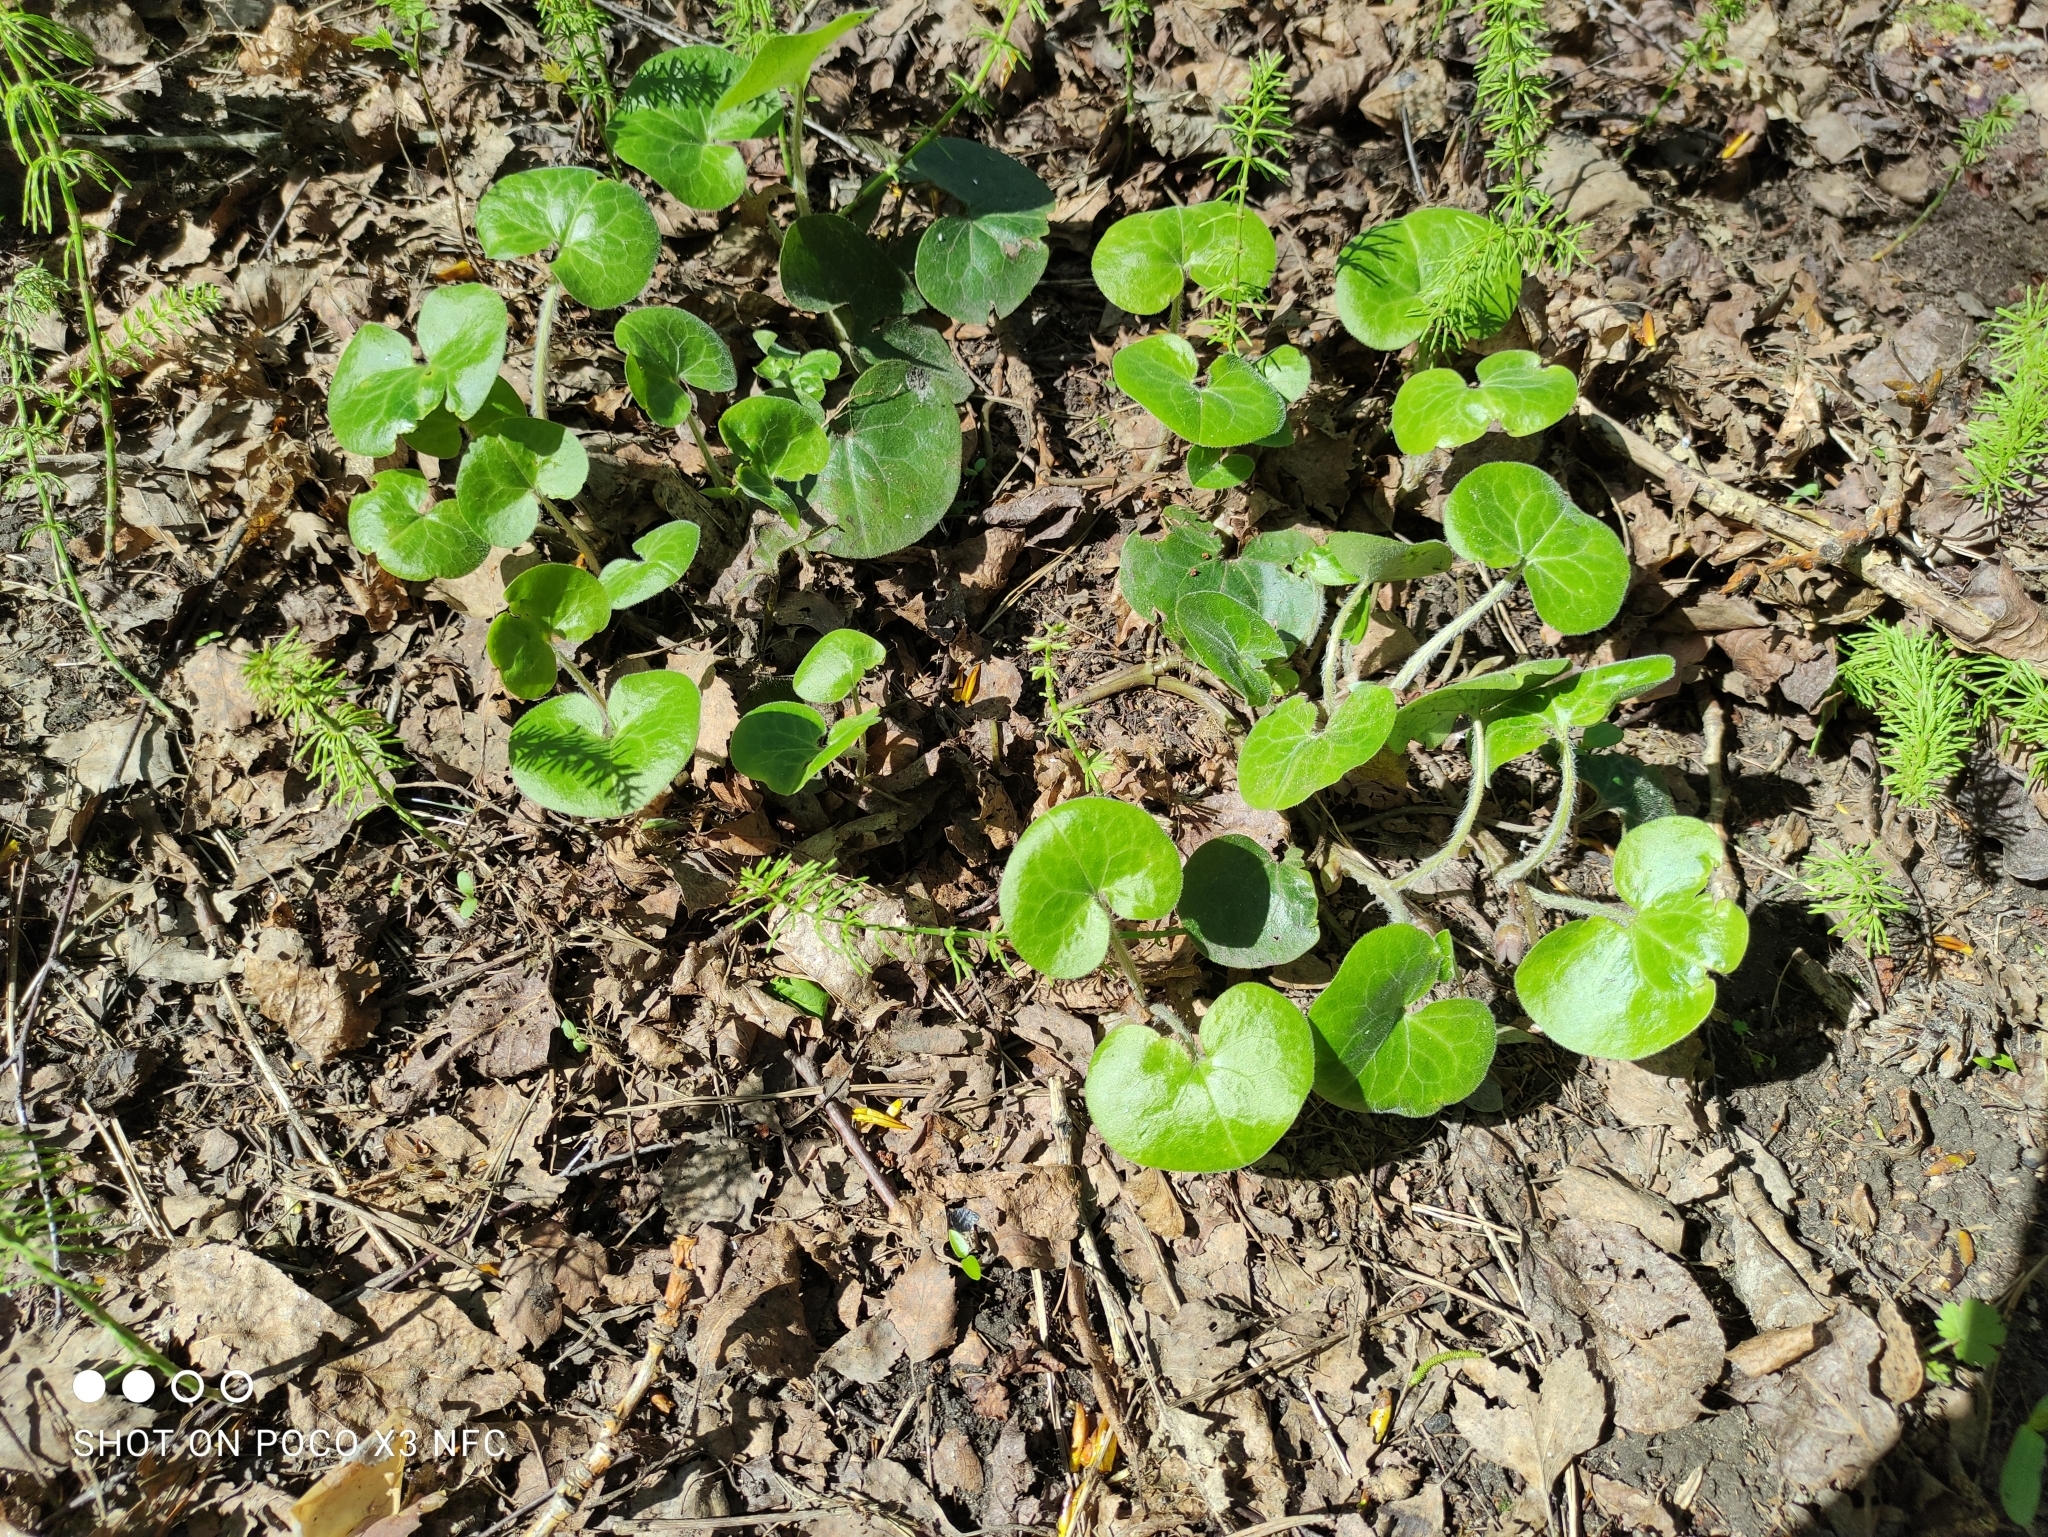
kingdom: Plantae
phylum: Tracheophyta
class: Magnoliopsida
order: Piperales
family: Aristolochiaceae
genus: Asarum
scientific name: Asarum europaeum
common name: Asarabacca
